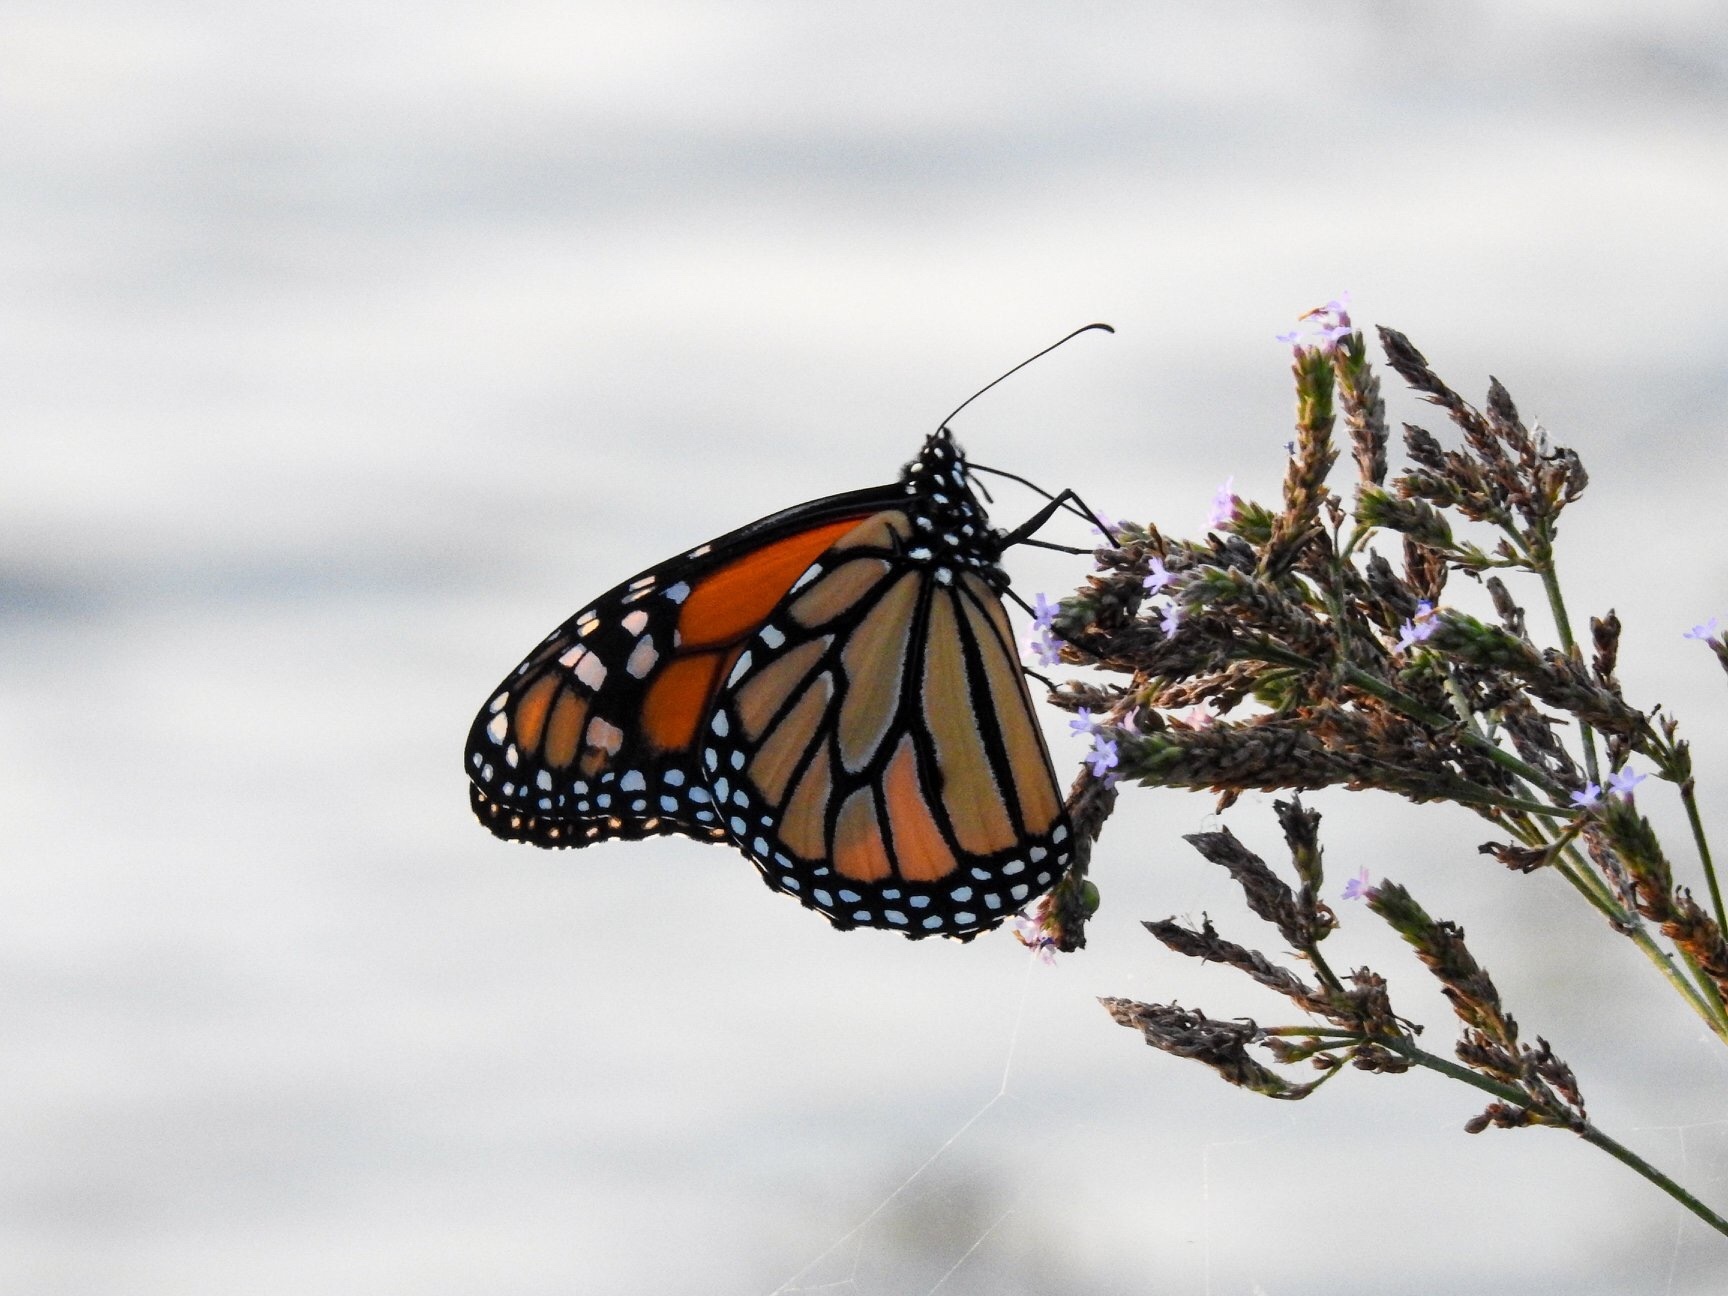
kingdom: Animalia
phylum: Arthropoda
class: Insecta
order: Lepidoptera
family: Nymphalidae
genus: Danaus
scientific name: Danaus plexippus
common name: Monarch
